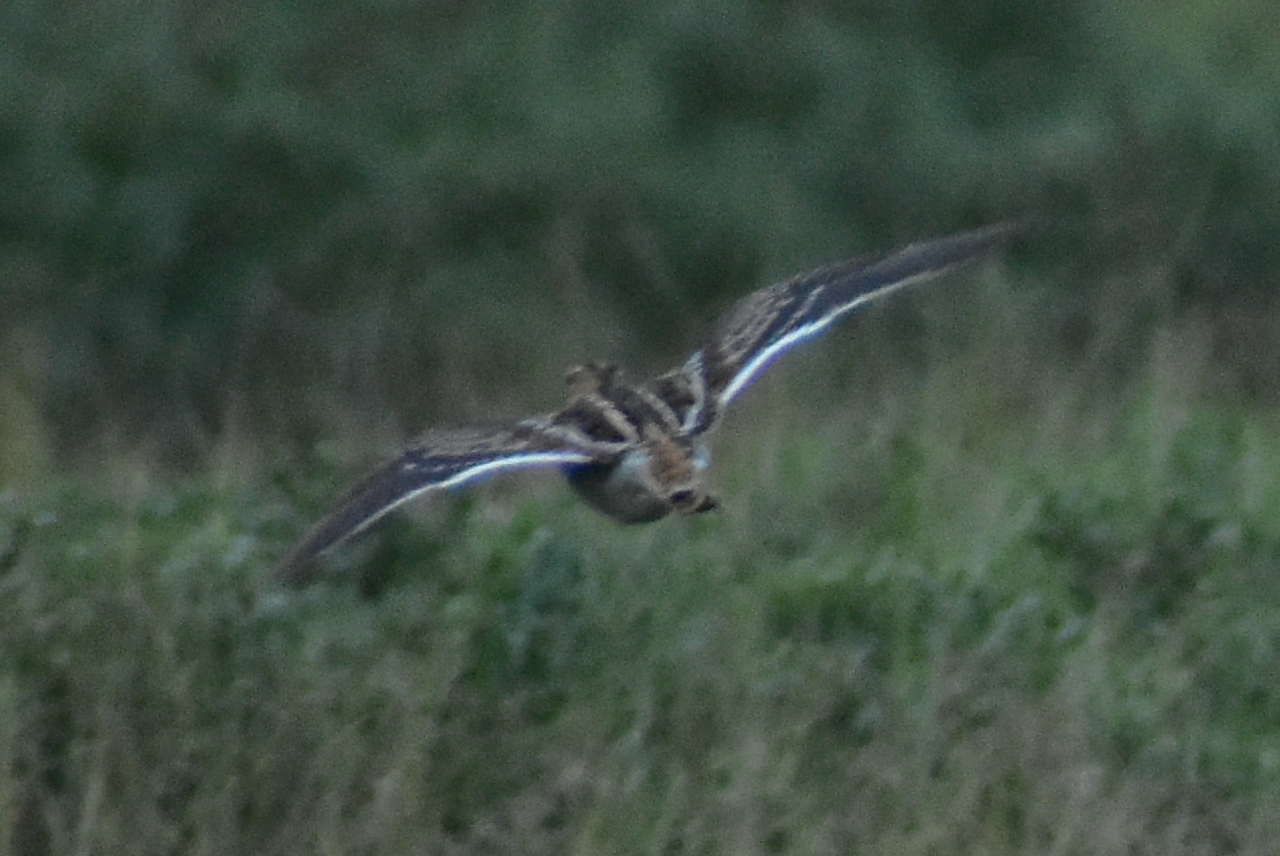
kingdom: Animalia
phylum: Chordata
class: Aves
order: Charadriiformes
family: Scolopacidae
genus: Gallinago
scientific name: Gallinago gallinago
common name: Common snipe
